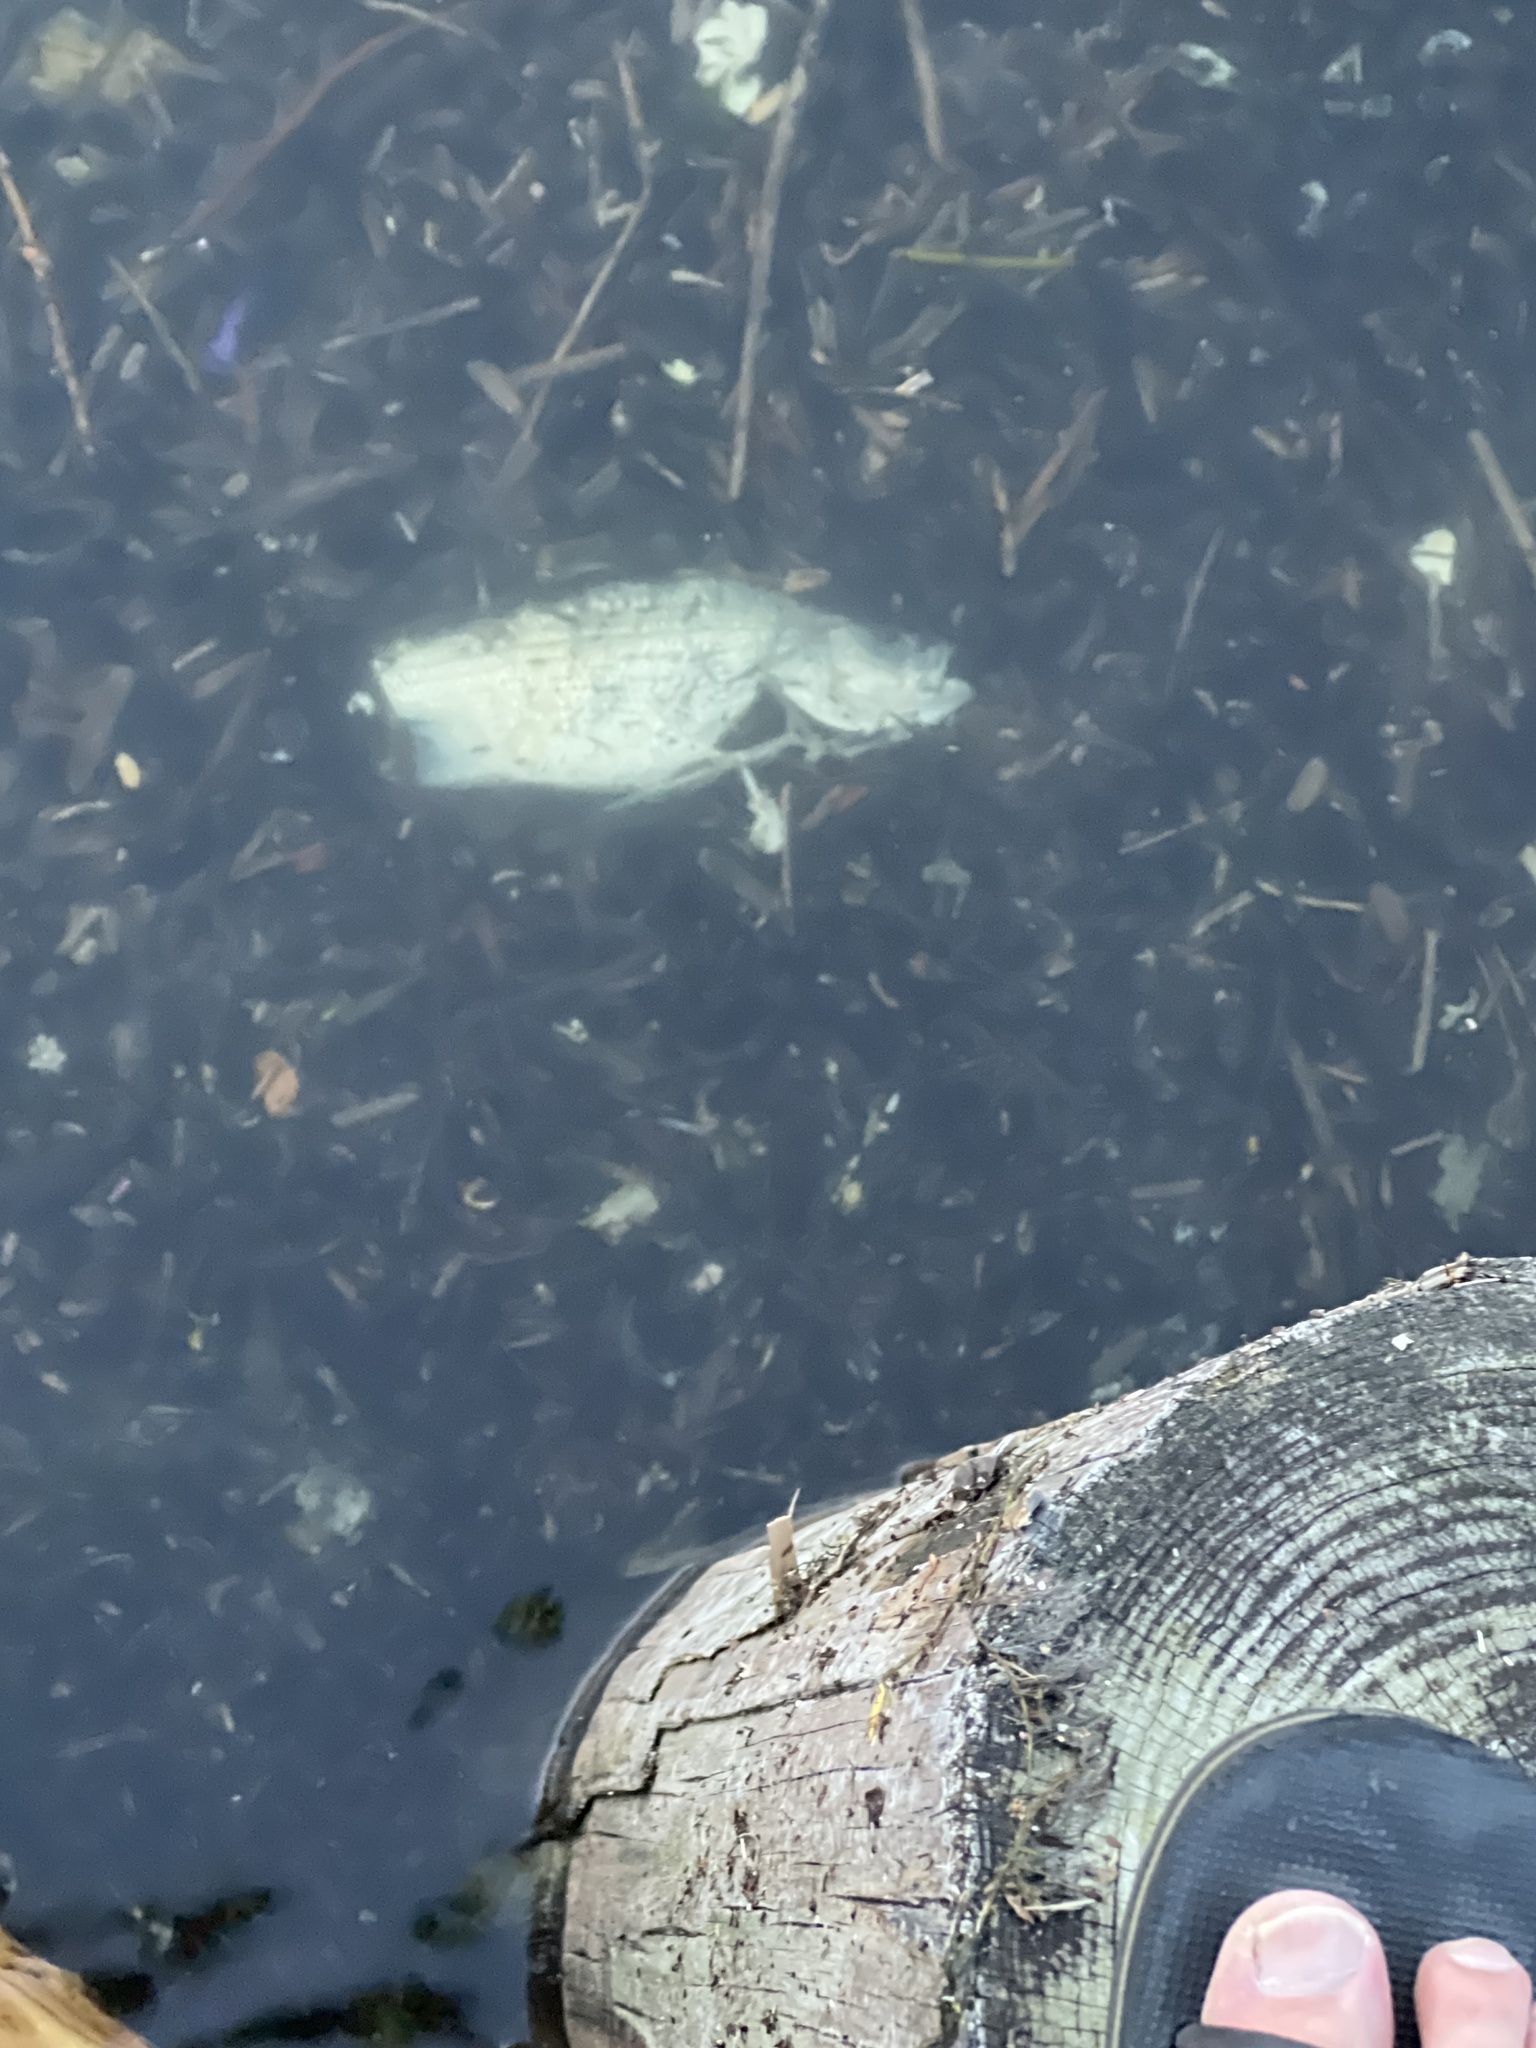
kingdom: Animalia
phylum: Chordata
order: Perciformes
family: Moronidae
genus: Morone
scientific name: Morone chrysops
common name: White bass
